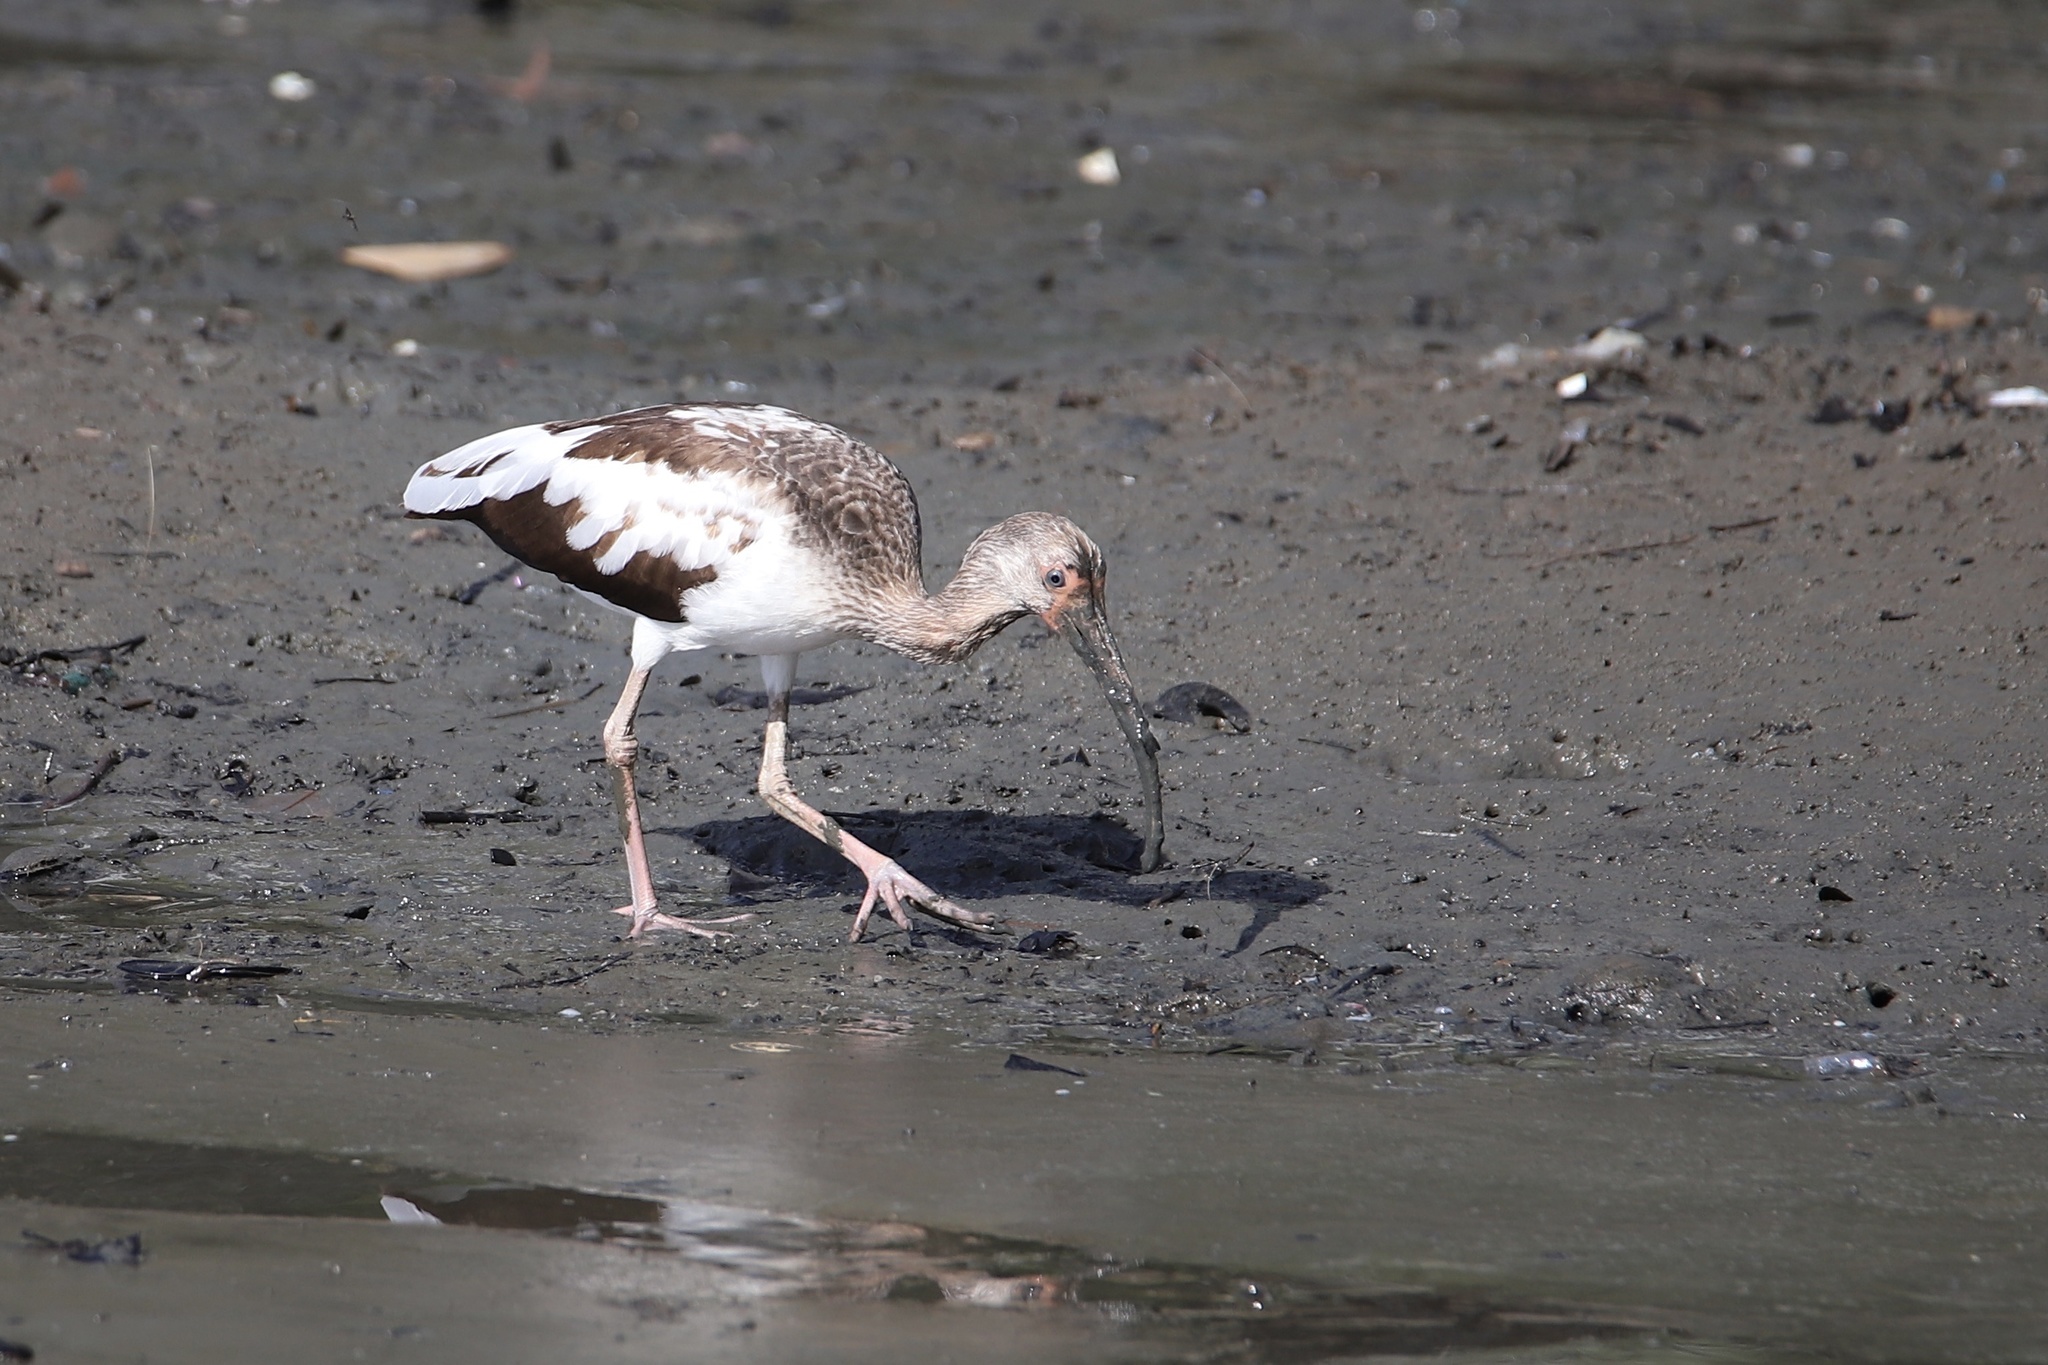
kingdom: Animalia
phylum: Chordata
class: Aves
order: Pelecaniformes
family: Threskiornithidae
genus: Eudocimus
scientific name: Eudocimus albus
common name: White ibis
